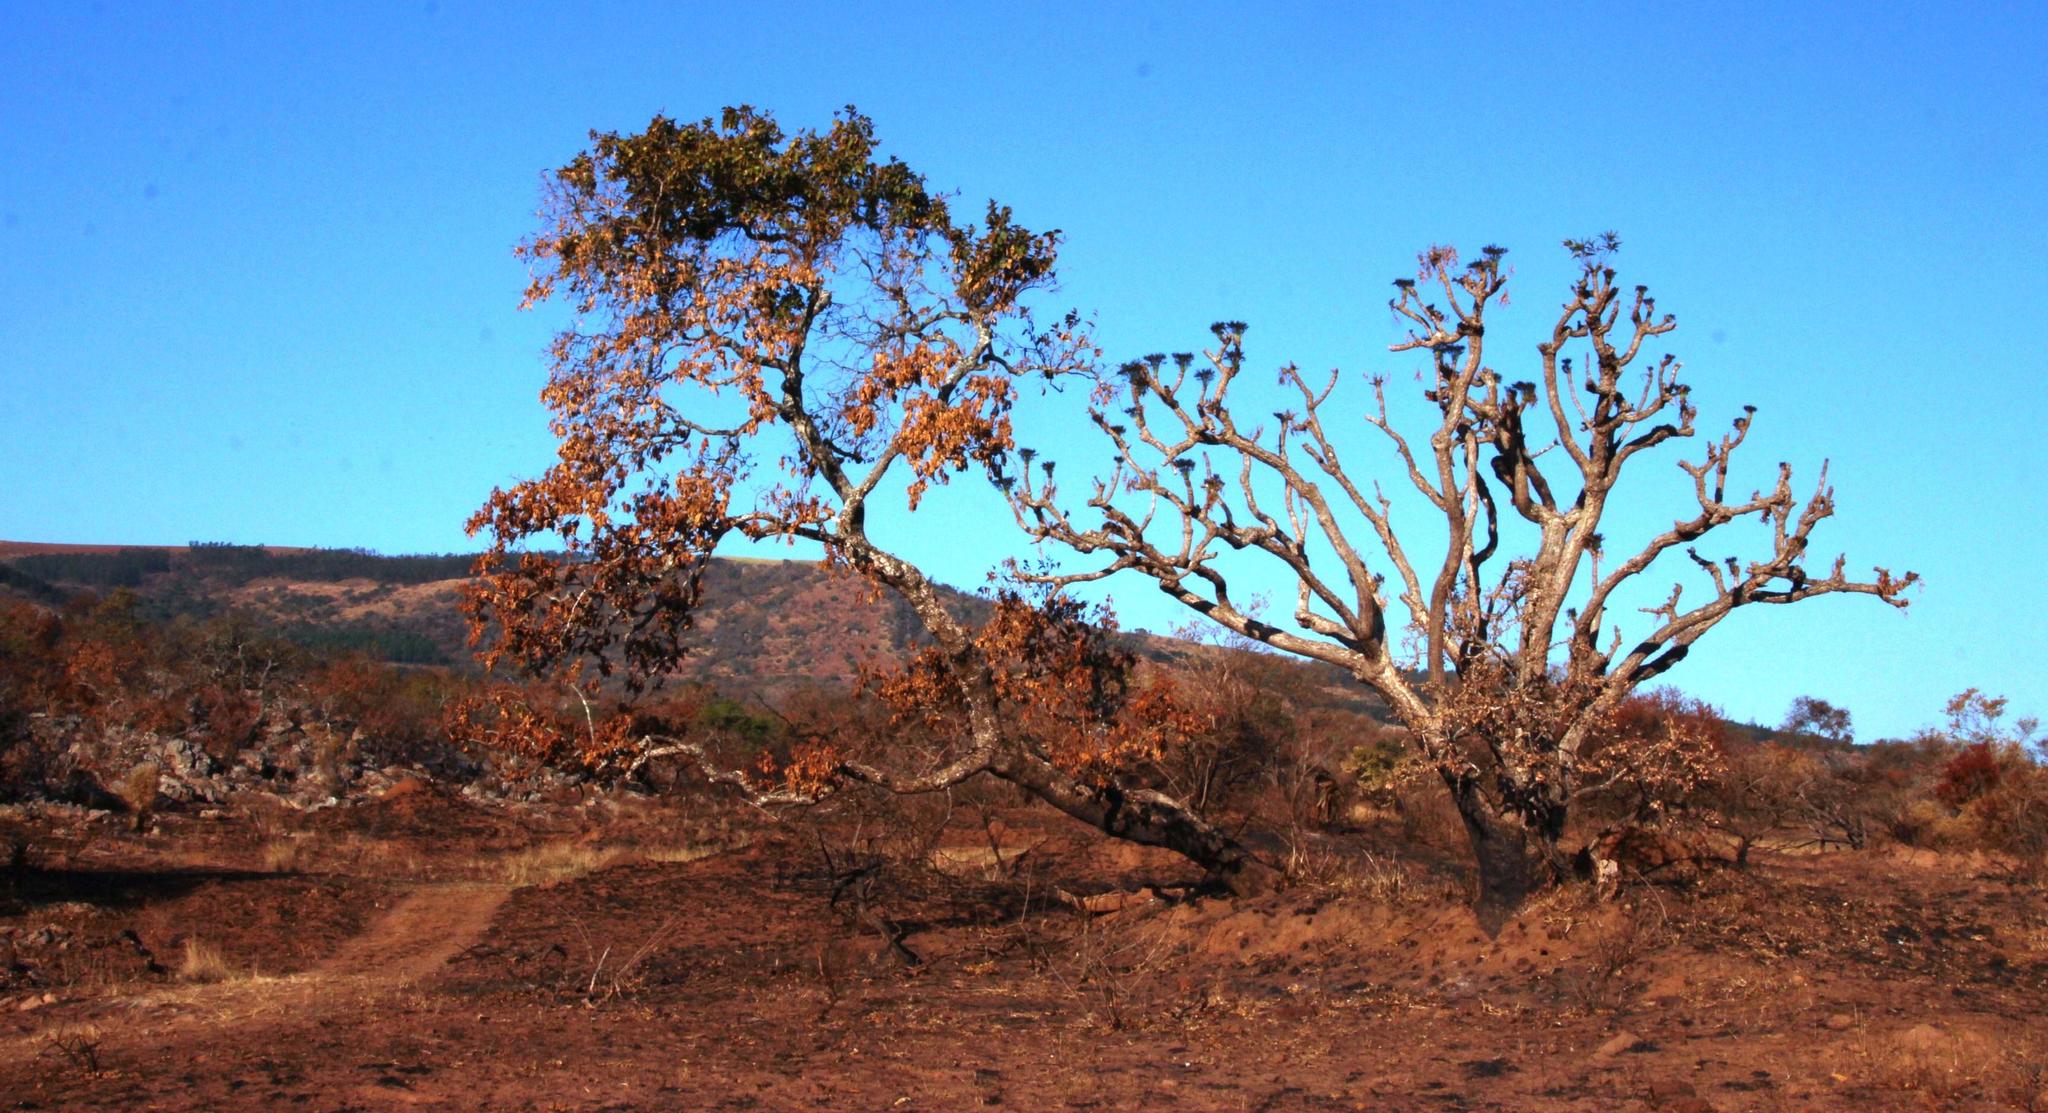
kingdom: Plantae
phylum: Tracheophyta
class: Magnoliopsida
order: Myrtales
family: Combretaceae
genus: Combretum
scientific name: Combretum molle
